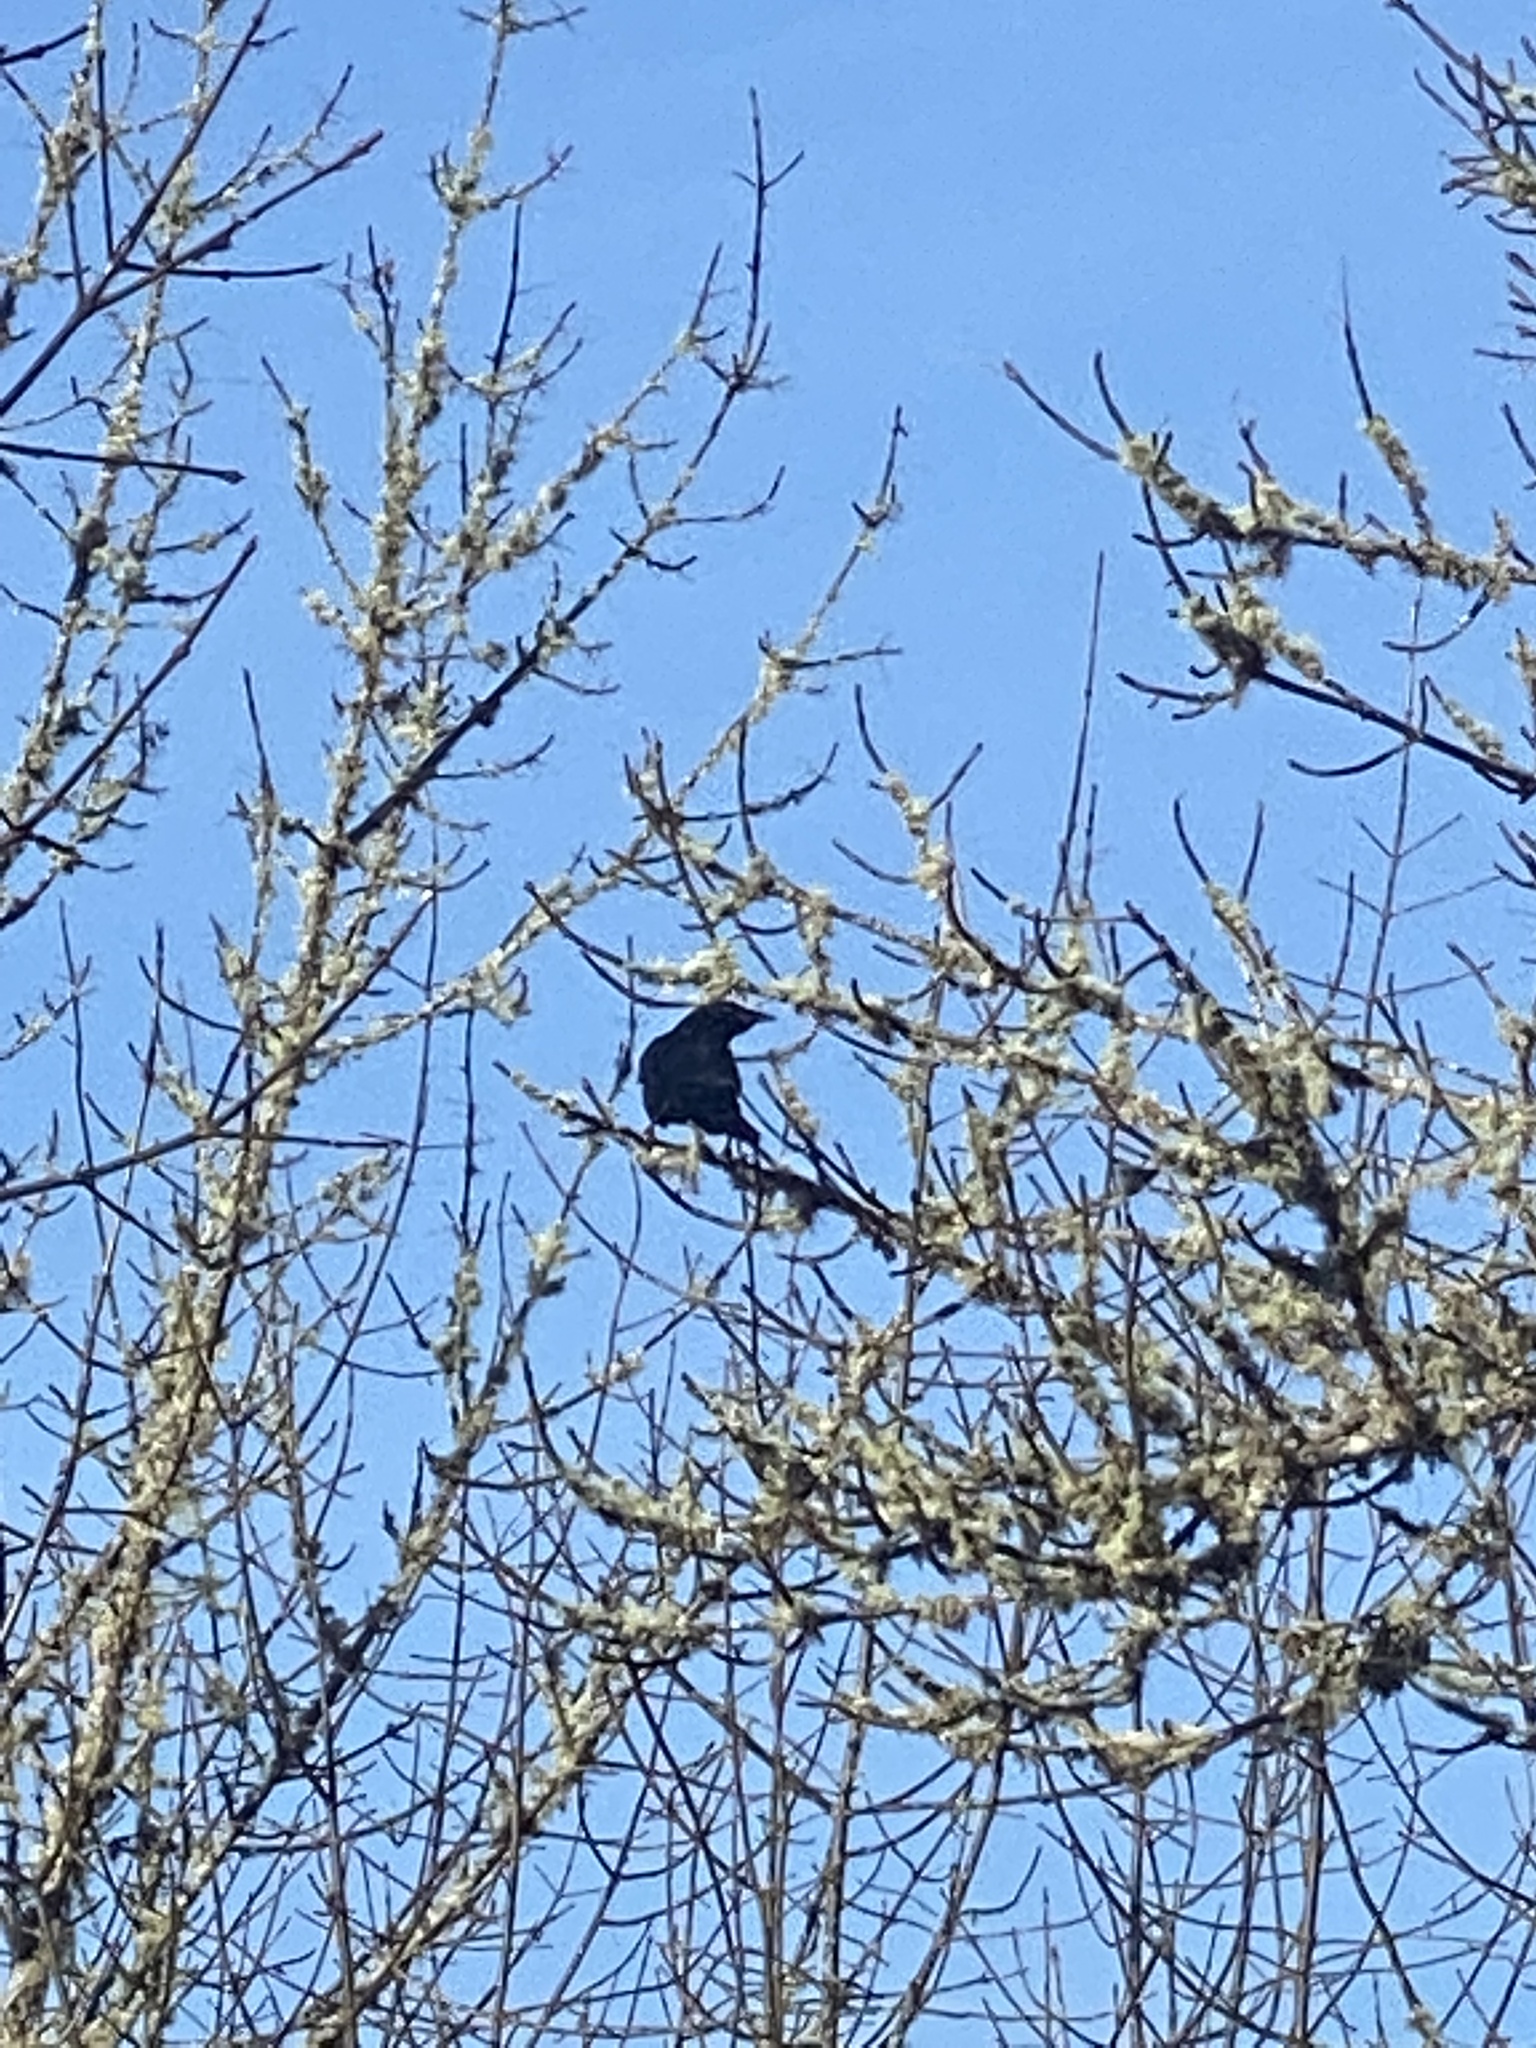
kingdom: Animalia
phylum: Chordata
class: Aves
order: Passeriformes
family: Corvidae
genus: Corvus
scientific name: Corvus brachyrhynchos
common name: American crow
